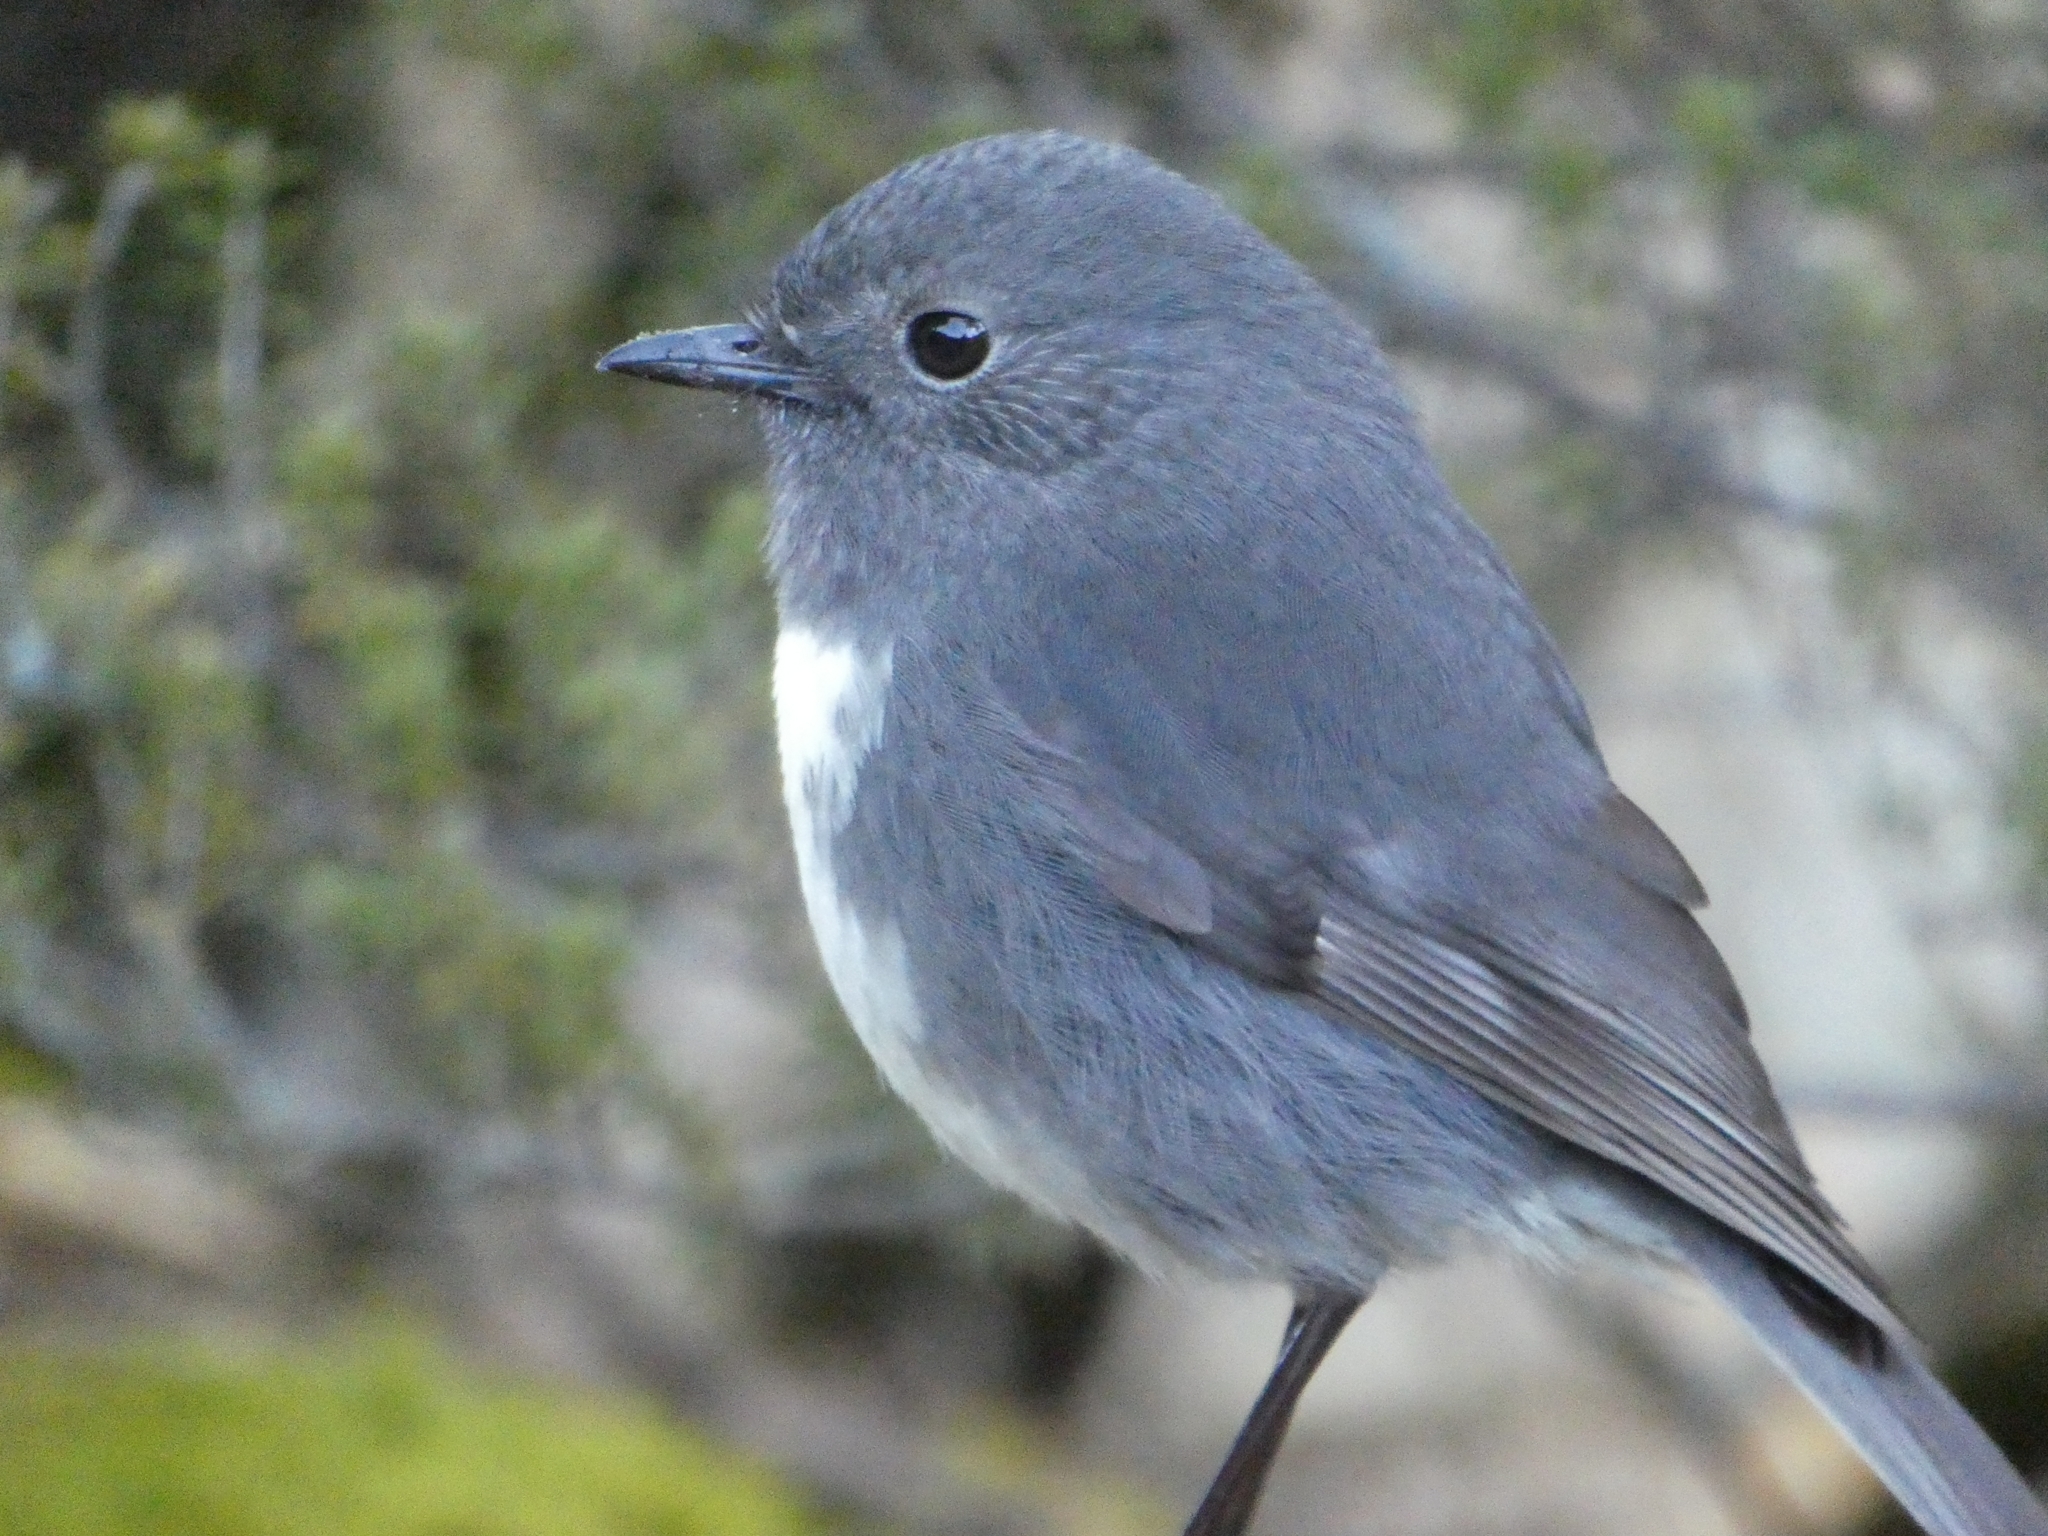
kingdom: Animalia
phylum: Chordata
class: Aves
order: Passeriformes
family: Petroicidae
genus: Petroica
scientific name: Petroica australis
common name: New zealand robin
